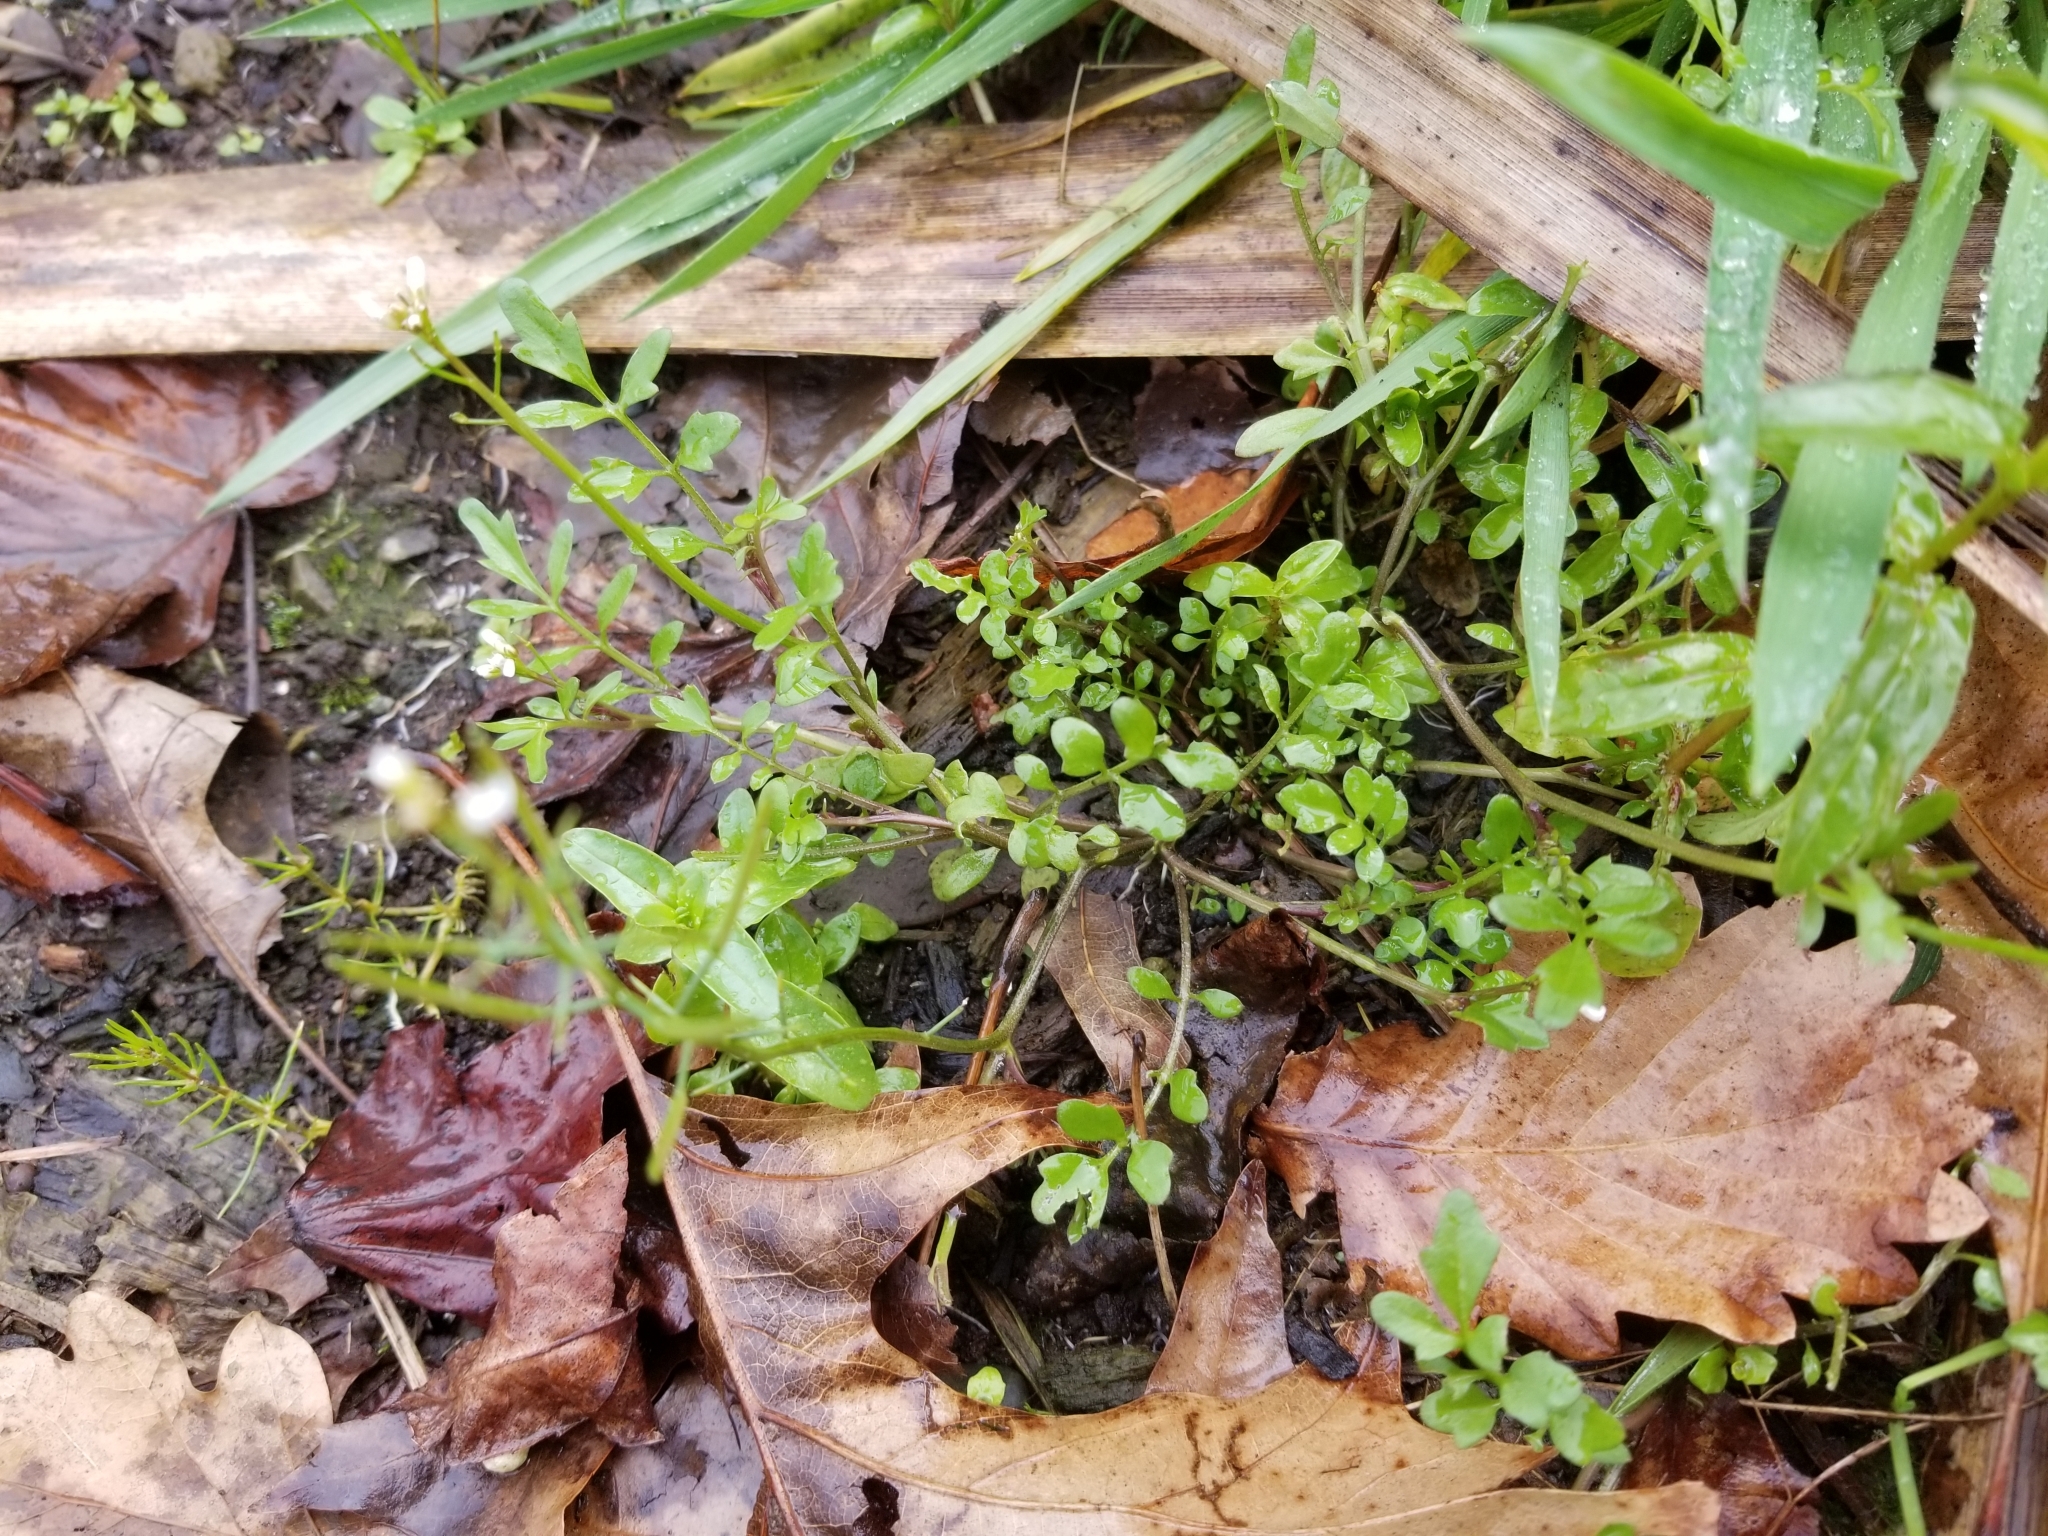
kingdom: Plantae
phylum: Tracheophyta
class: Magnoliopsida
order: Brassicales
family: Brassicaceae
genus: Cardamine
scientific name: Cardamine occulta
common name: Asian wavy bittercress
